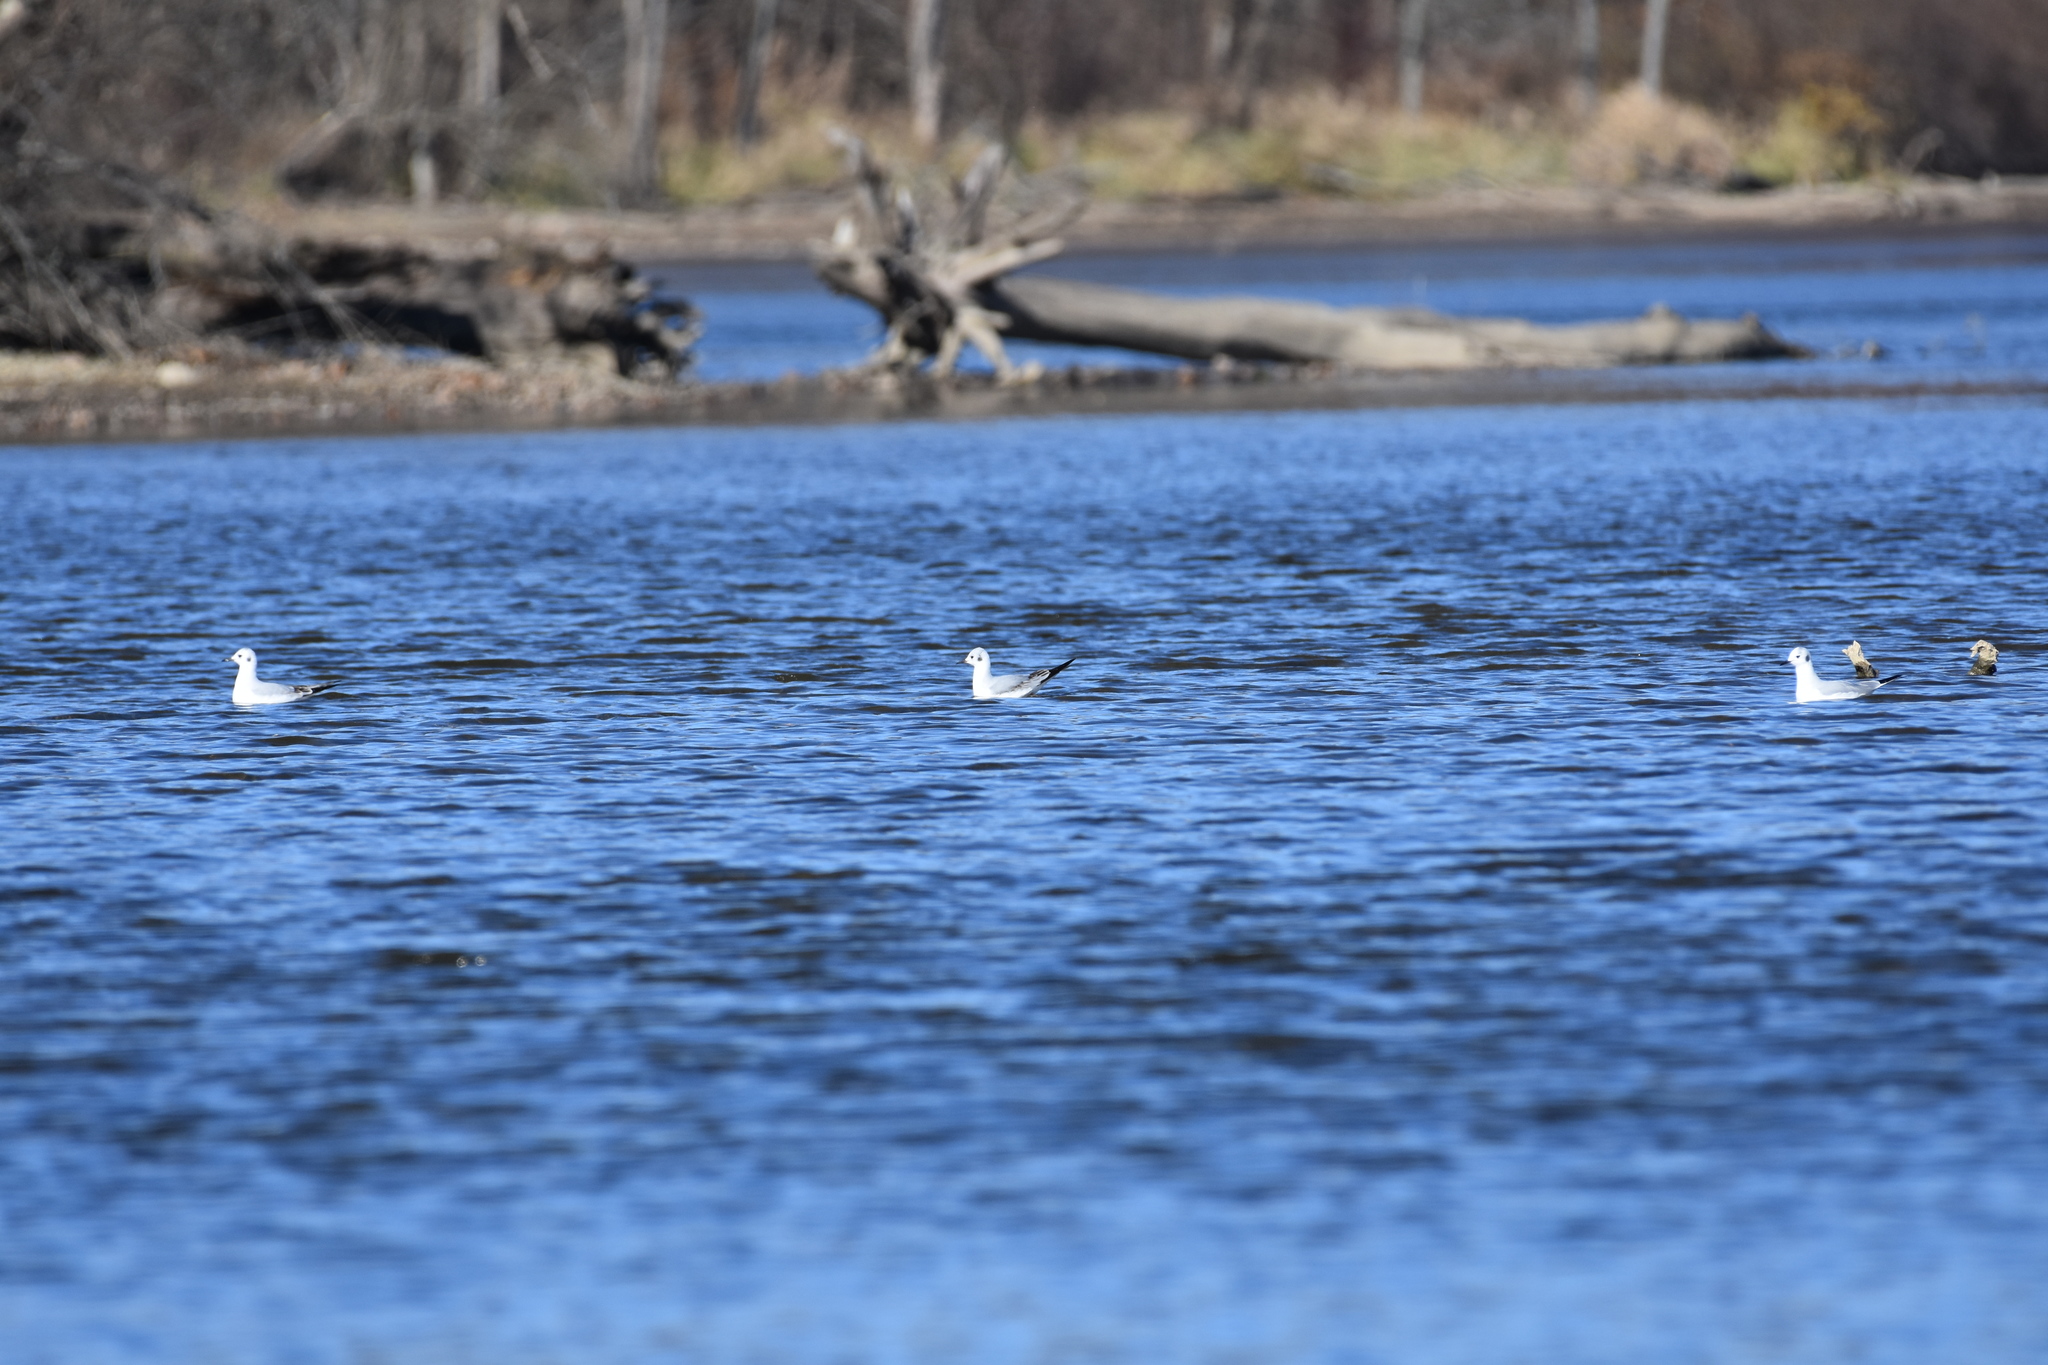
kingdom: Animalia
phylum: Chordata
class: Aves
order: Charadriiformes
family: Laridae
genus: Chroicocephalus
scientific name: Chroicocephalus philadelphia
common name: Bonaparte's gull
